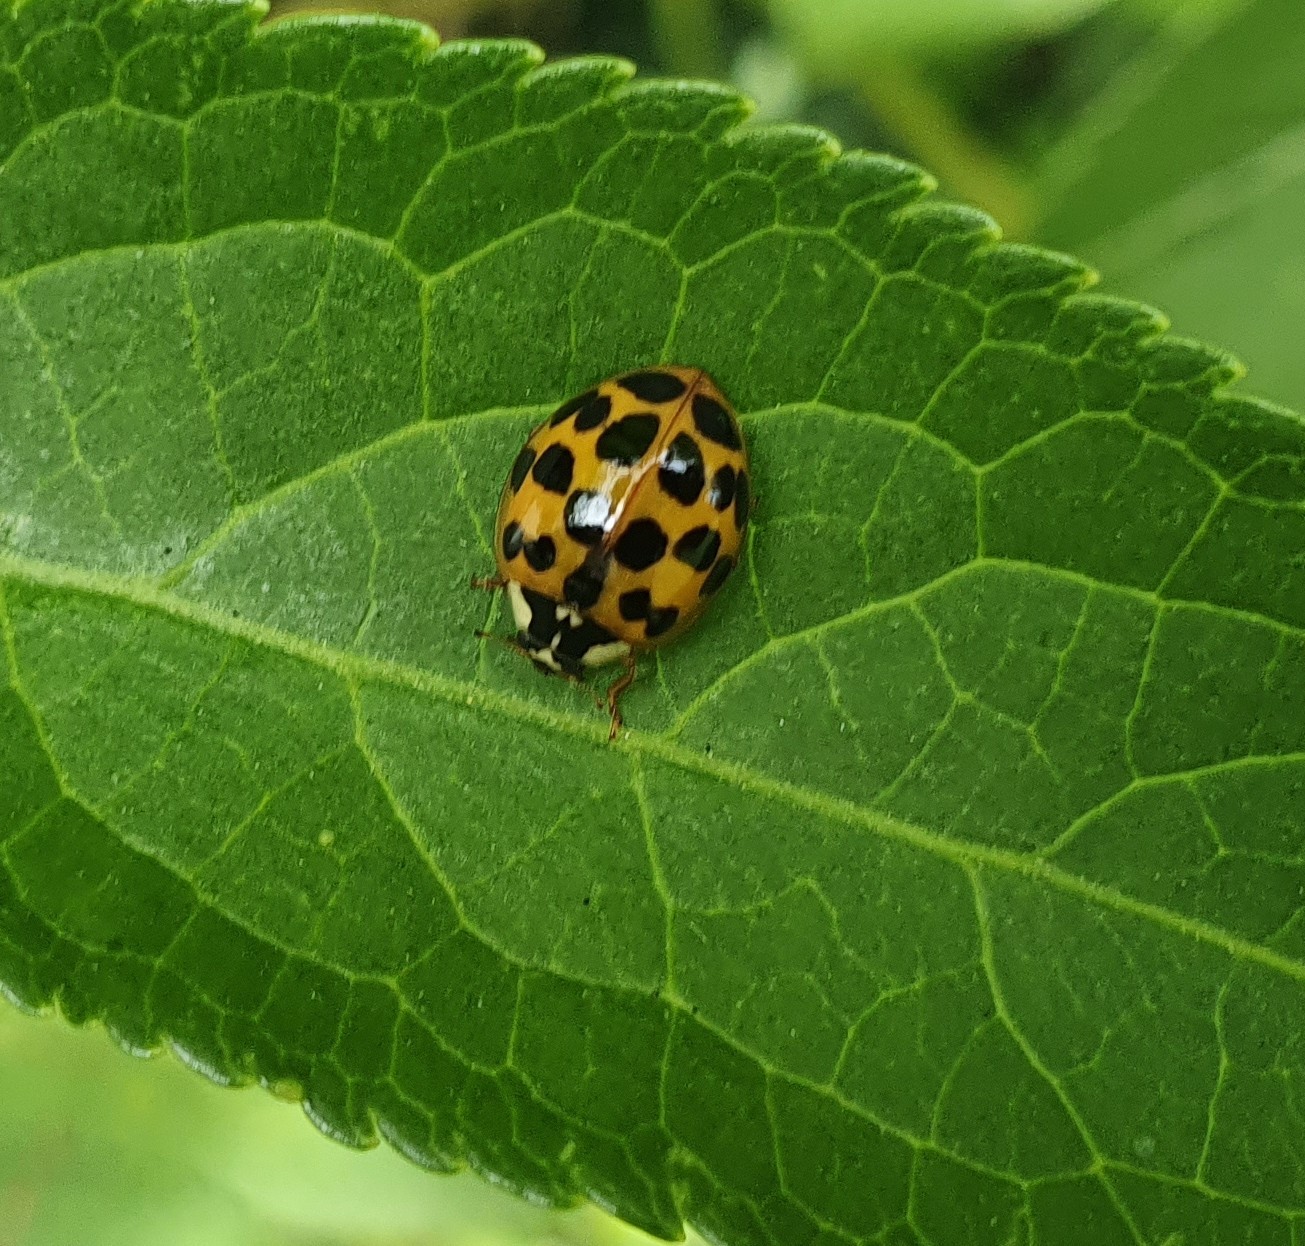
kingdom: Animalia
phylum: Arthropoda
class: Insecta
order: Coleoptera
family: Coccinellidae
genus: Harmonia
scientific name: Harmonia axyridis
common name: Harlequin ladybird
